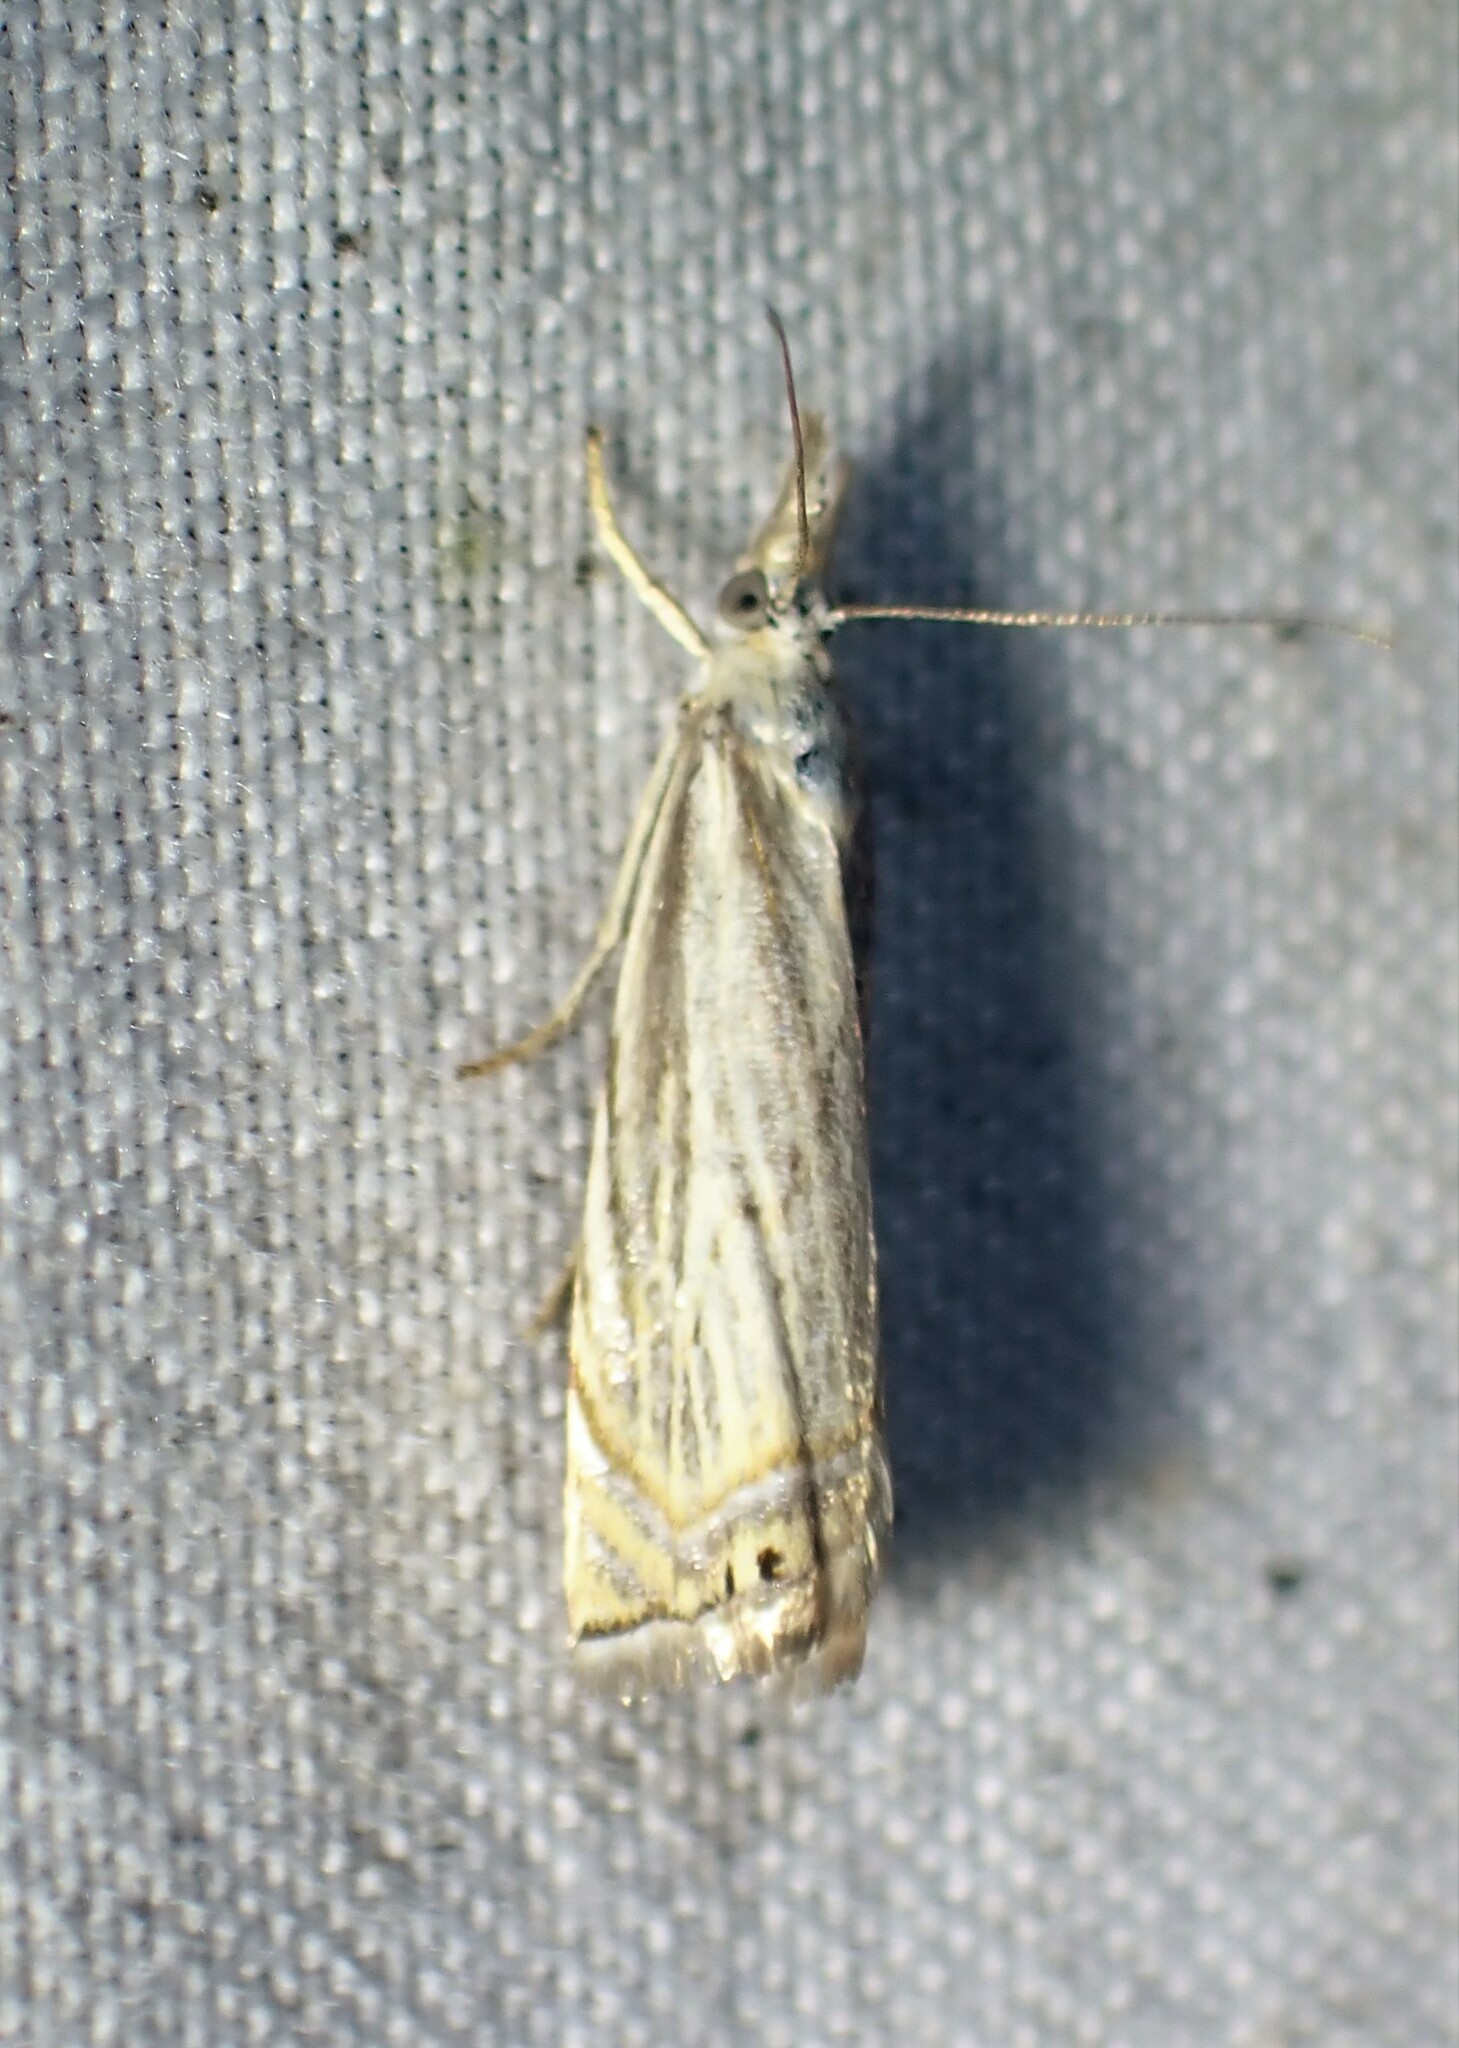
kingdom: Animalia
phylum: Arthropoda
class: Insecta
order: Lepidoptera
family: Crambidae
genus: Chrysoteuchia
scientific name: Chrysoteuchia topiarius
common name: Topiary grass-veneer
